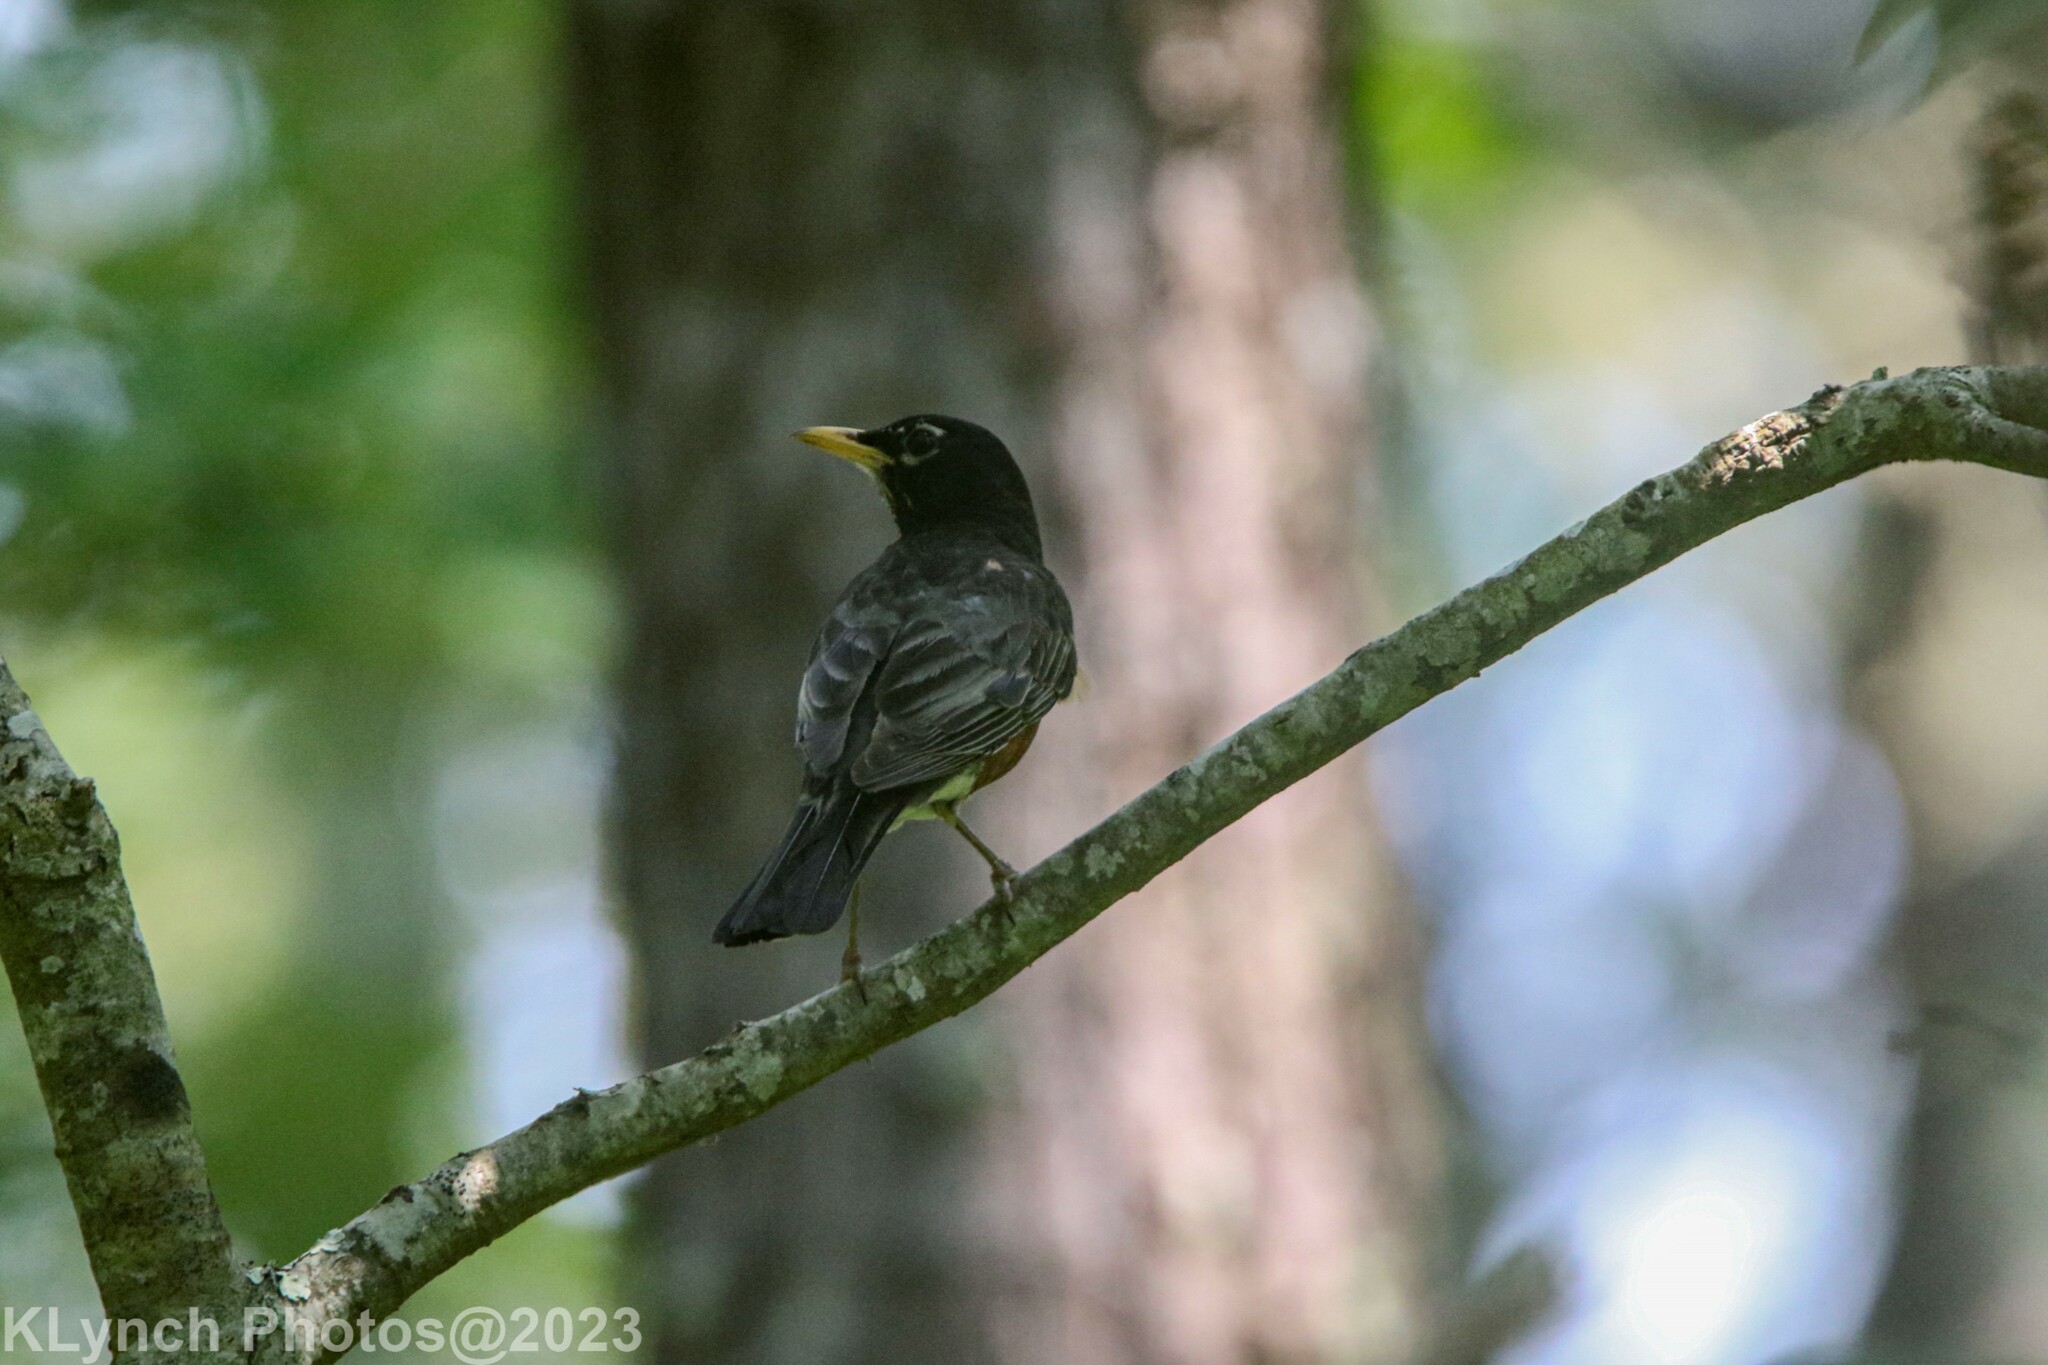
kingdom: Animalia
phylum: Chordata
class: Aves
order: Passeriformes
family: Turdidae
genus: Turdus
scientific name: Turdus migratorius
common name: American robin
